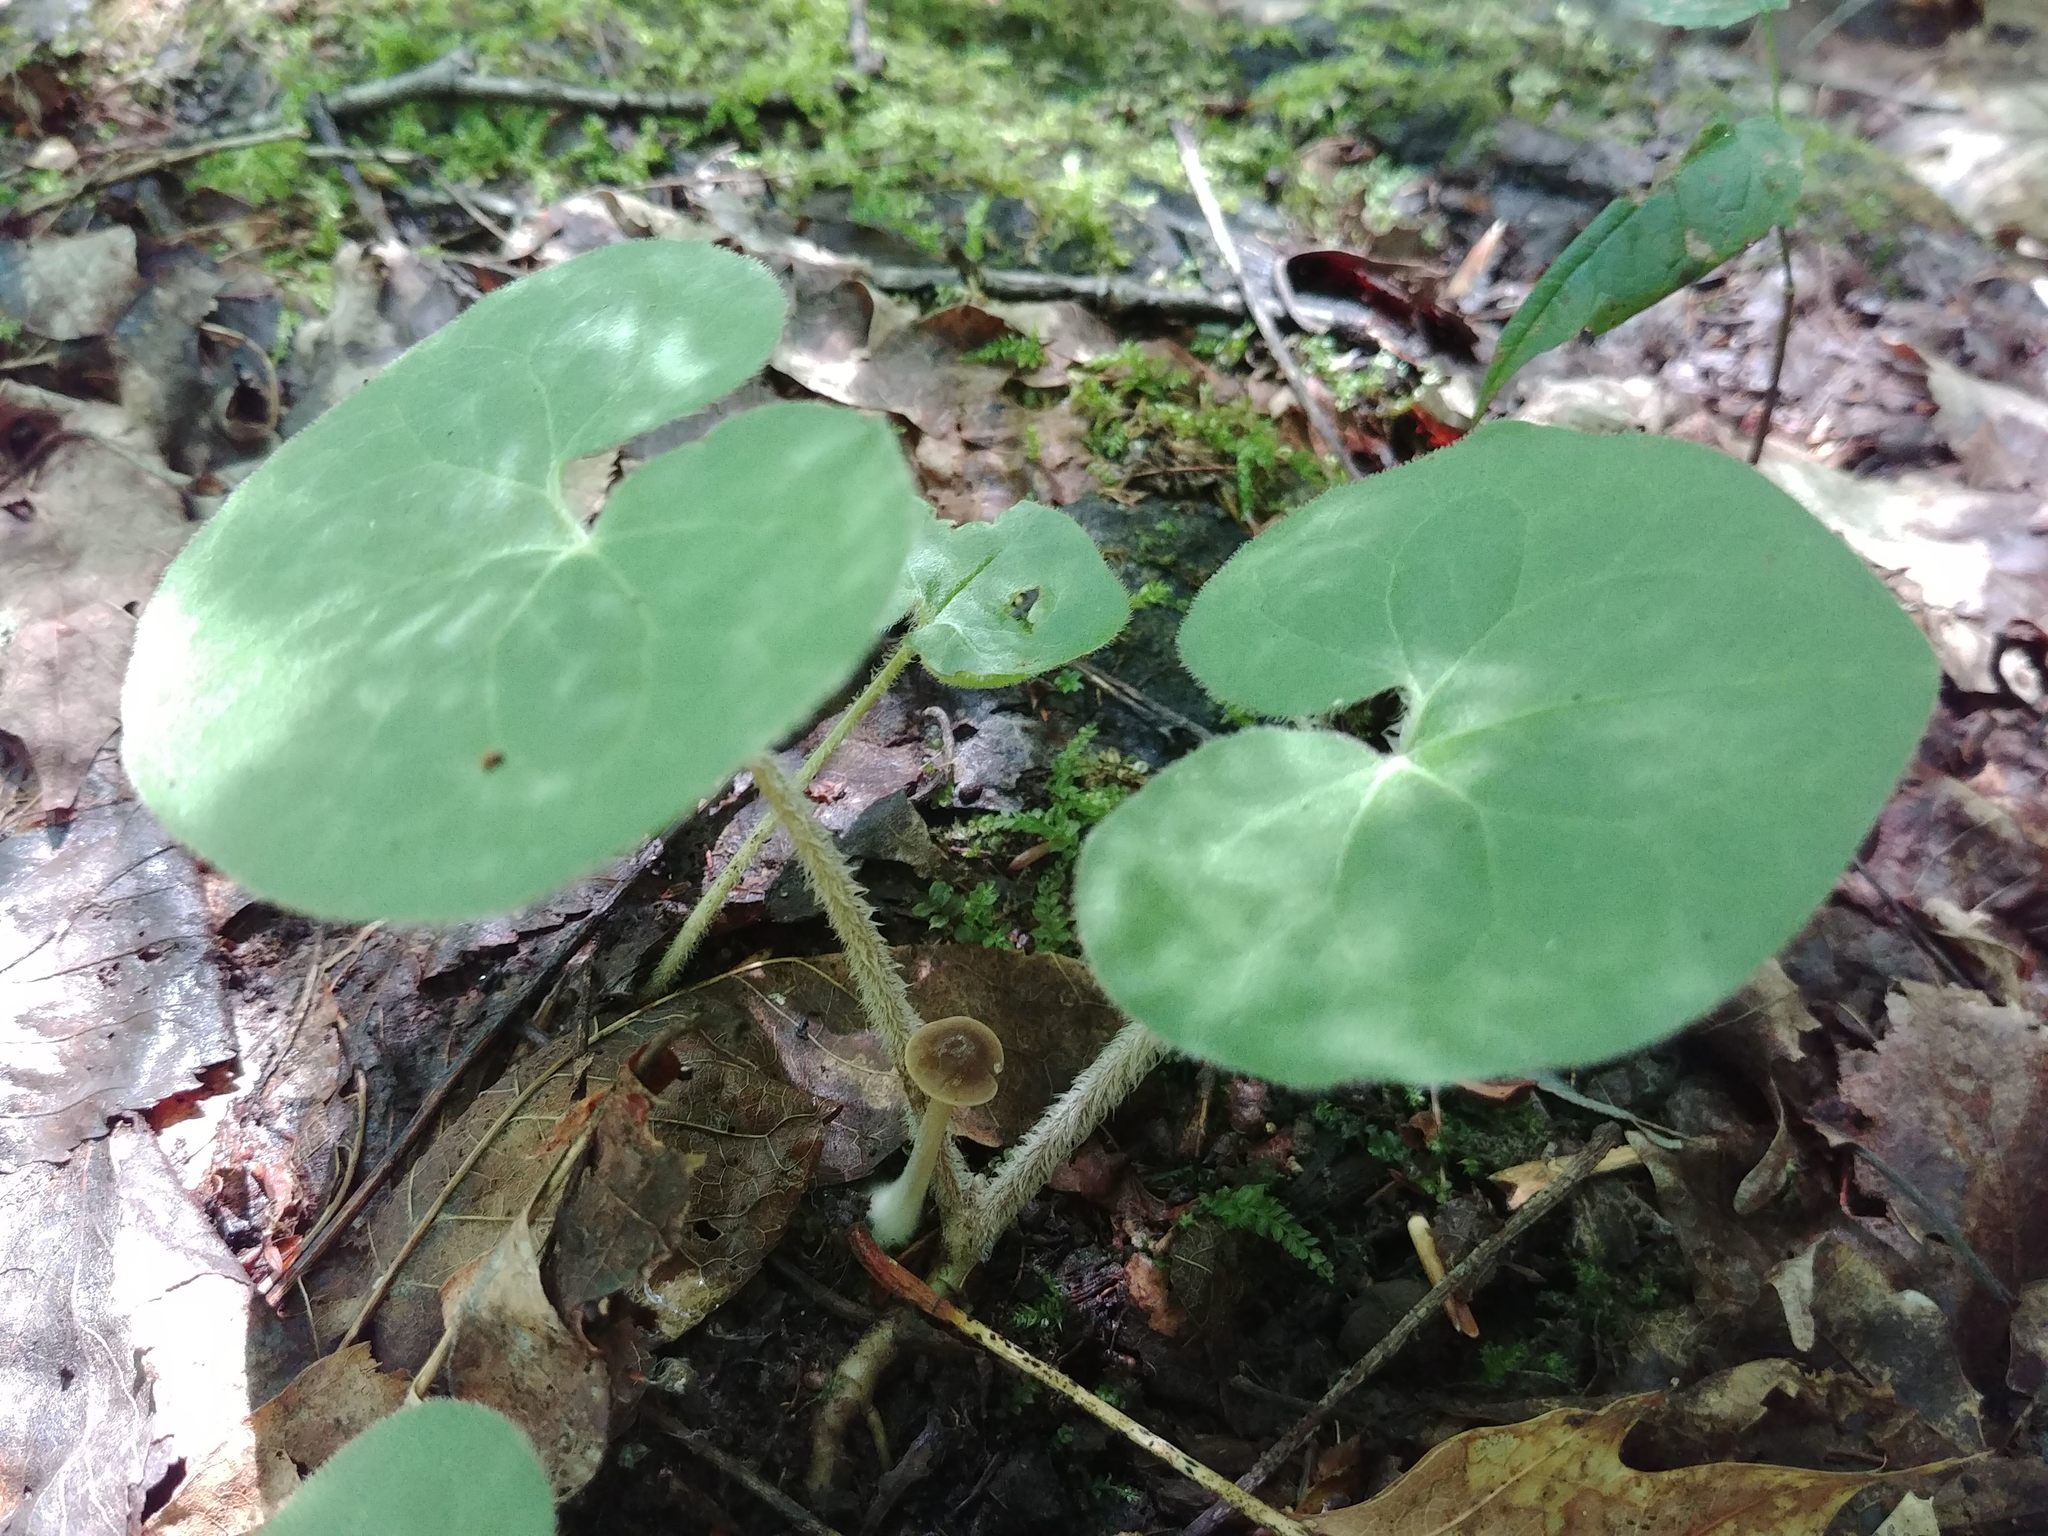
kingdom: Plantae
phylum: Tracheophyta
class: Magnoliopsida
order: Piperales
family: Aristolochiaceae
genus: Asarum
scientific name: Asarum canadense
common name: Wild ginger
